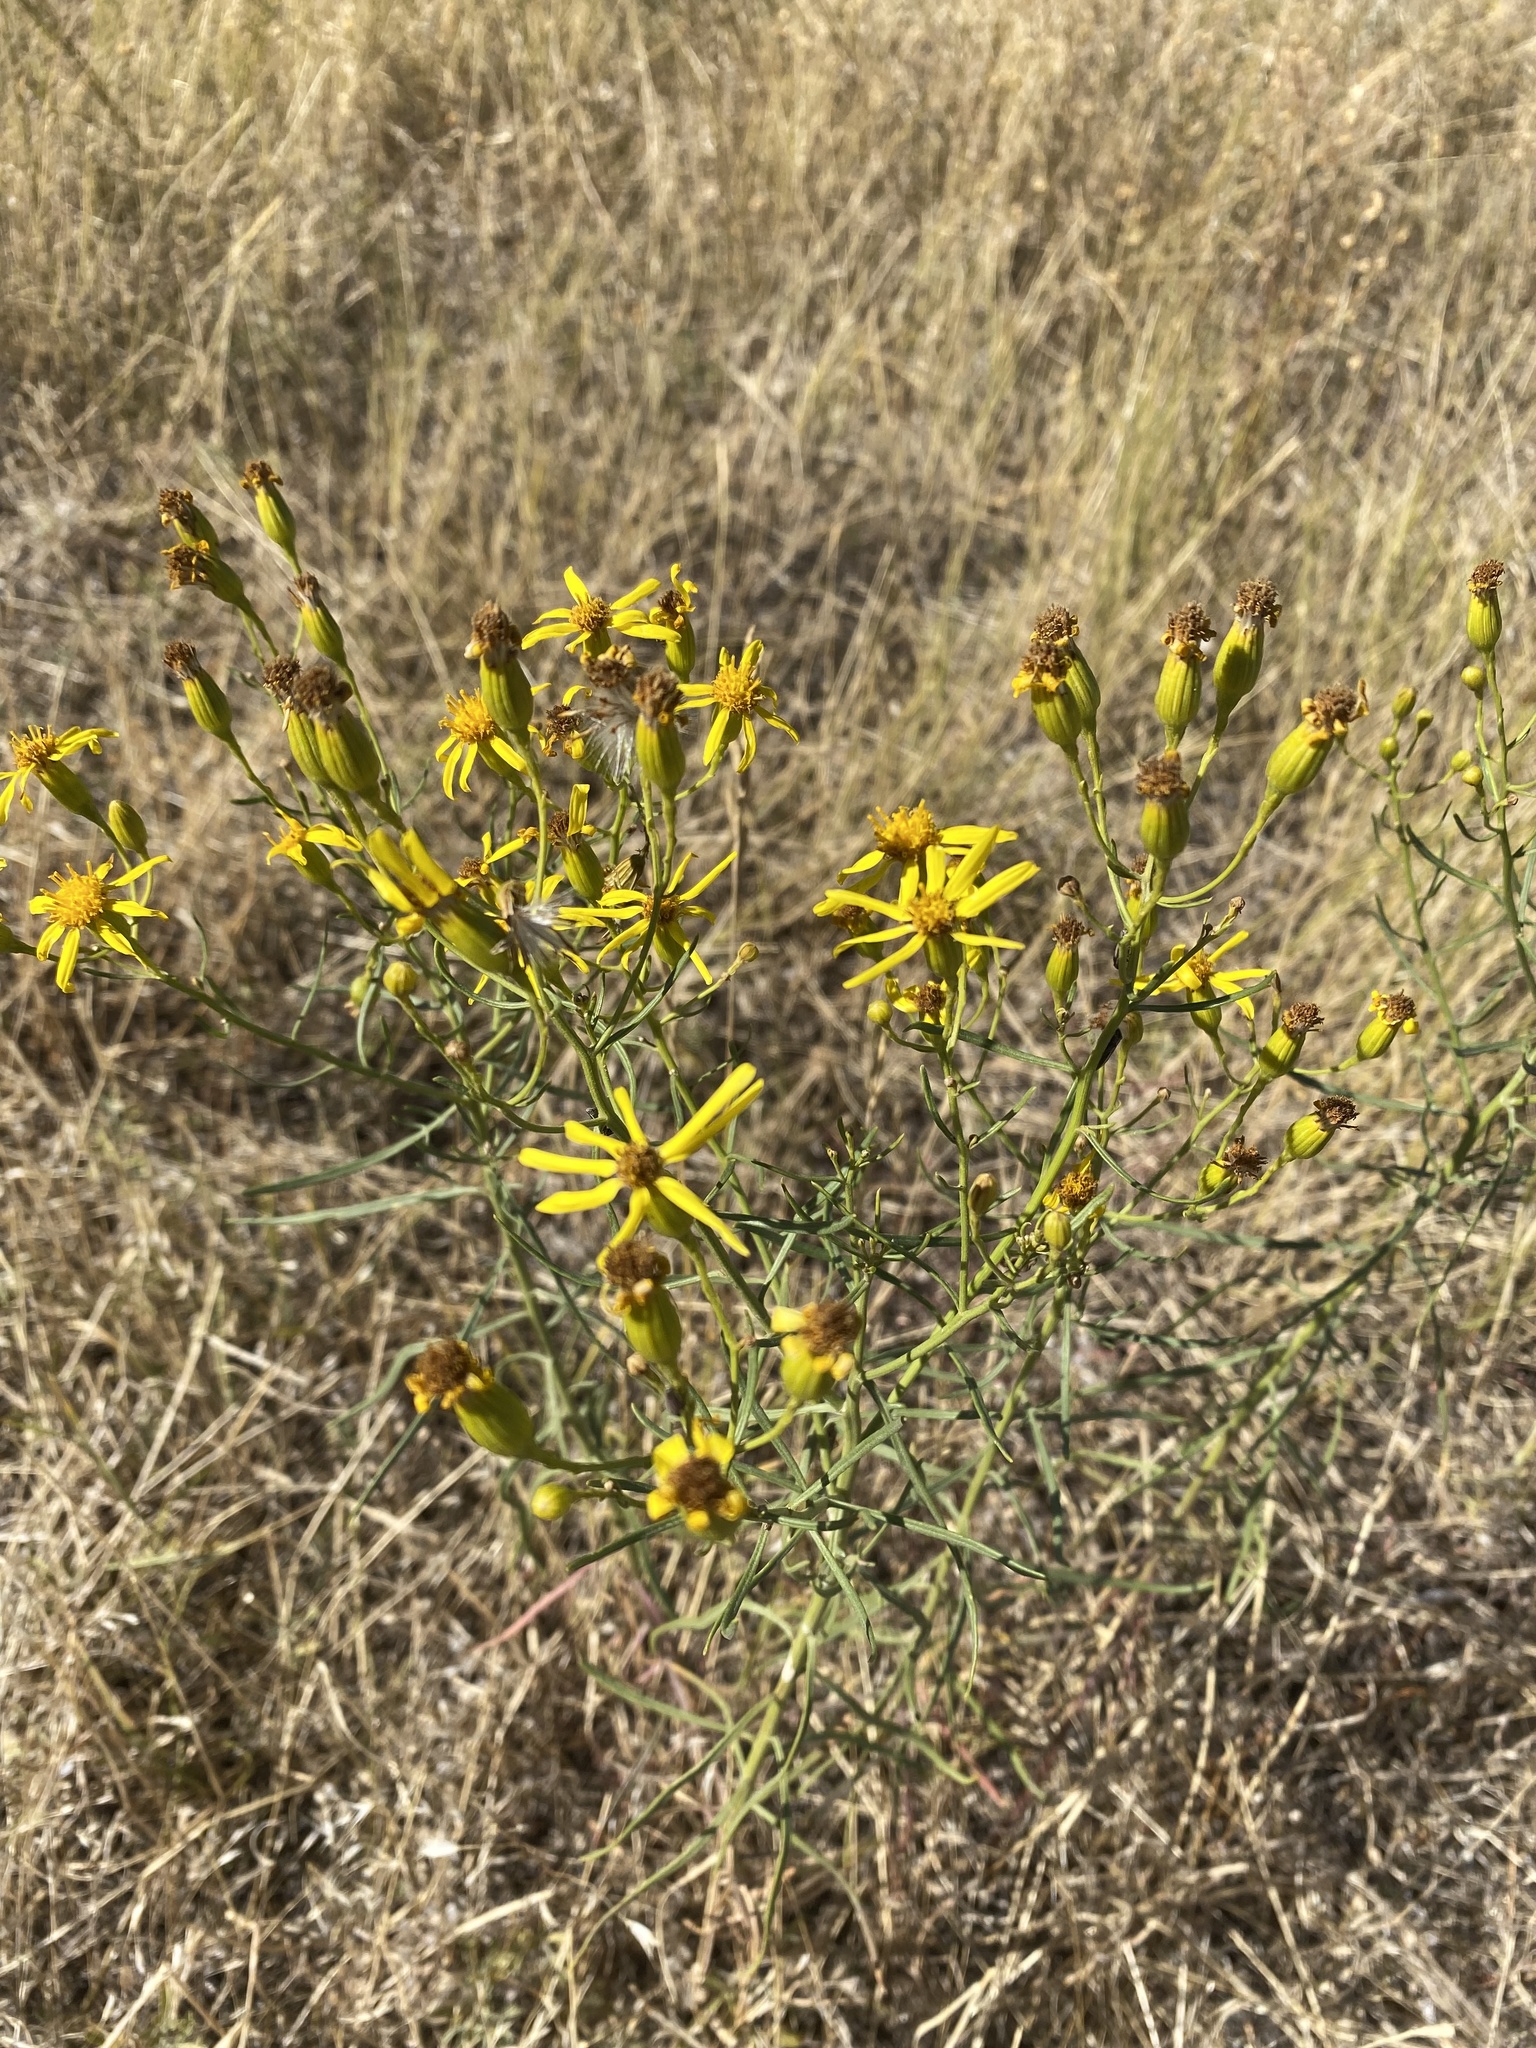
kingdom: Plantae
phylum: Tracheophyta
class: Magnoliopsida
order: Asterales
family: Asteraceae
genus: Senecio
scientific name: Senecio spartioides
